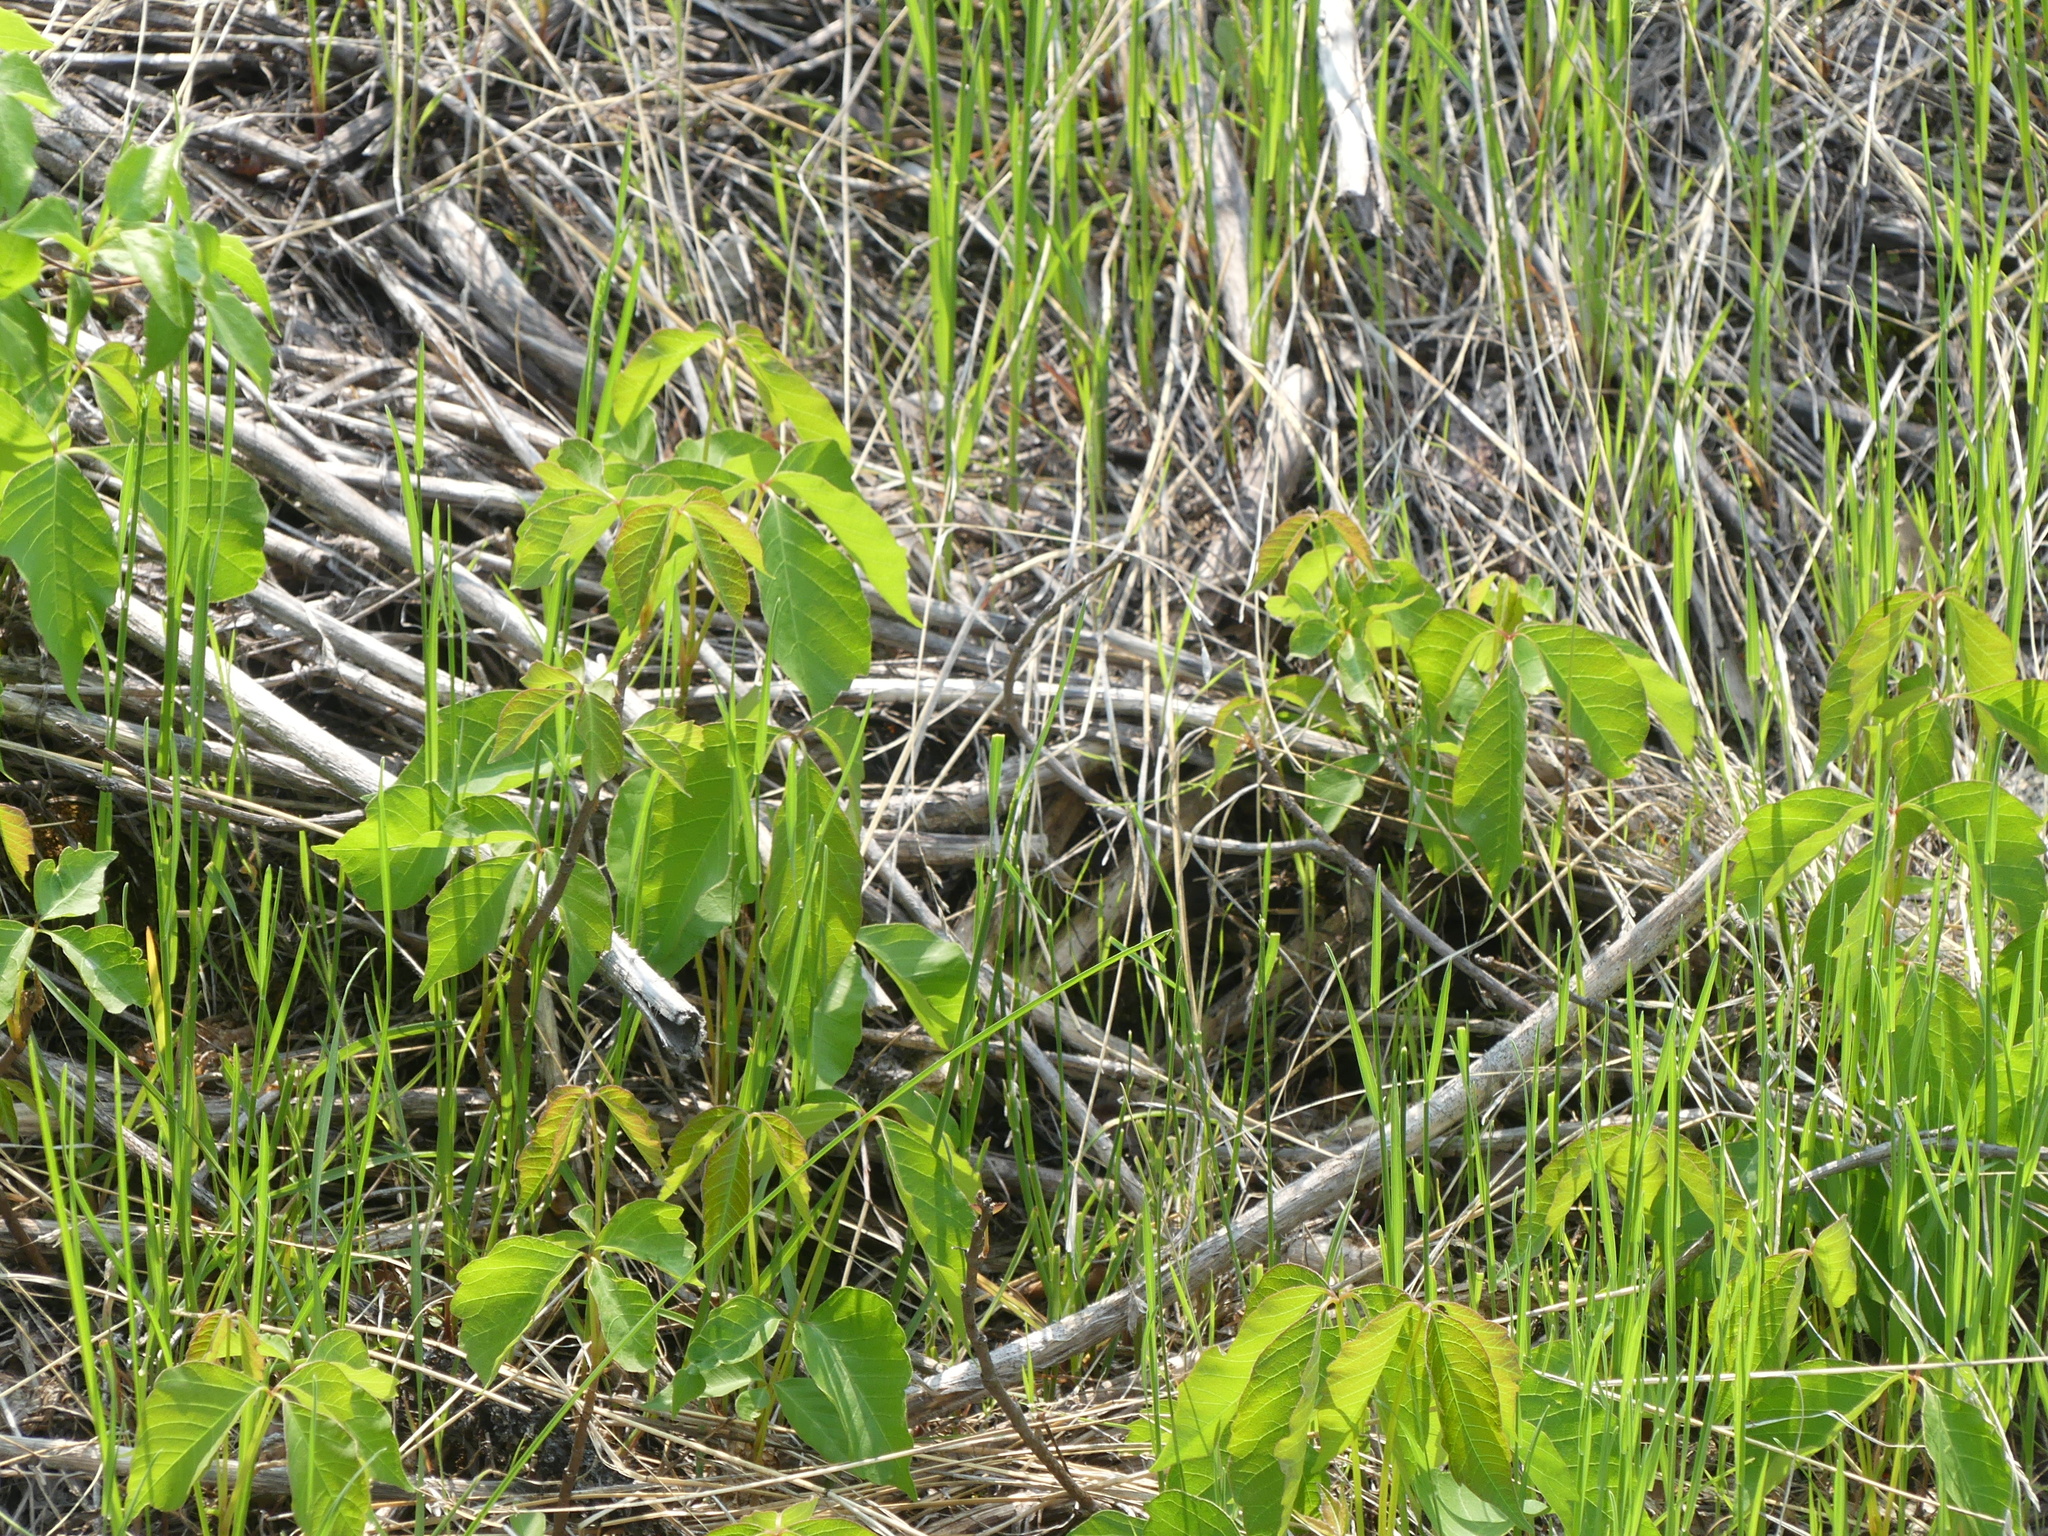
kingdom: Plantae
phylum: Tracheophyta
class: Magnoliopsida
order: Sapindales
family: Anacardiaceae
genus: Toxicodendron
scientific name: Toxicodendron rydbergii
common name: Rydberg's poison-ivy
